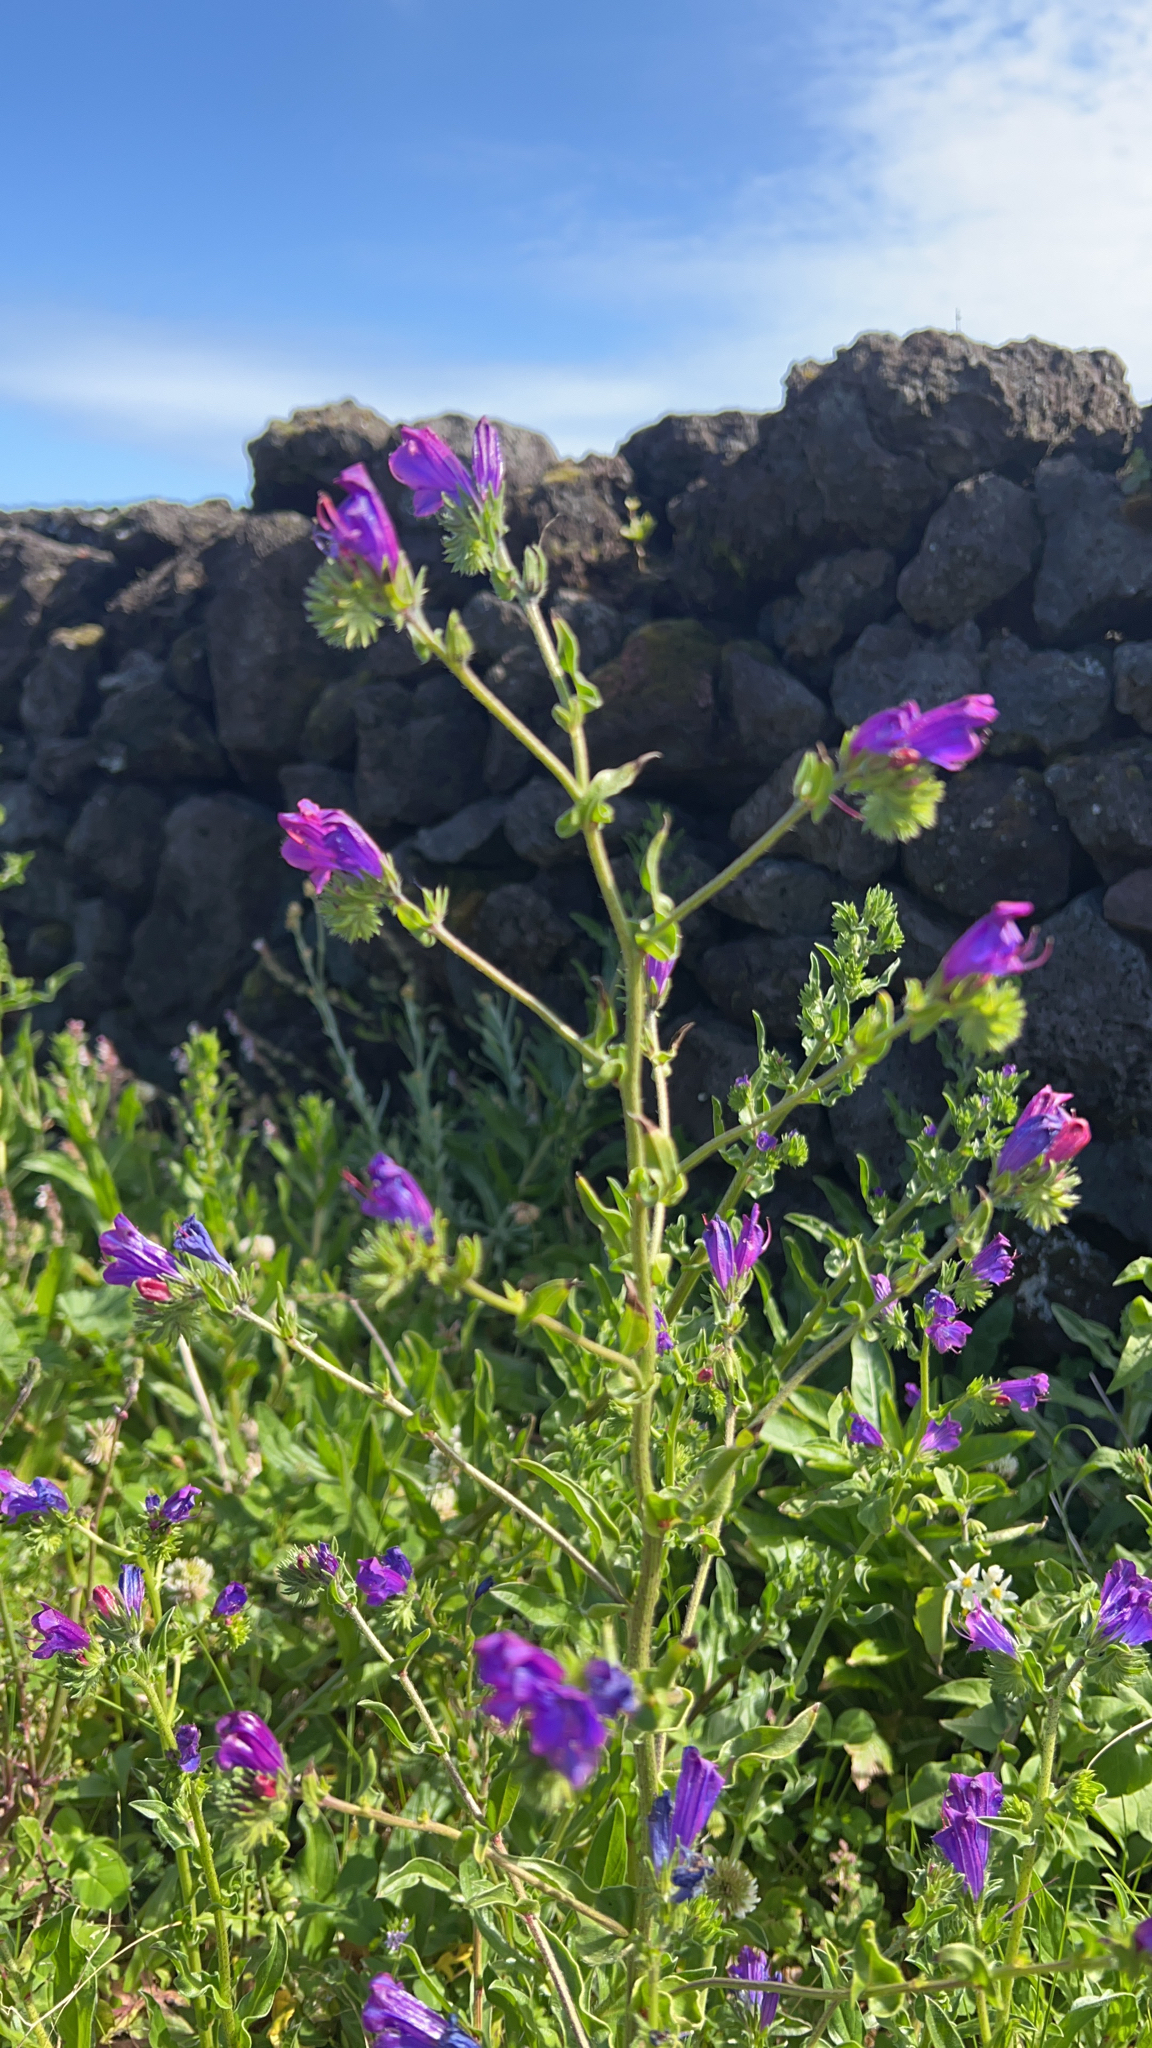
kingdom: Plantae
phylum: Tracheophyta
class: Magnoliopsida
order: Boraginales
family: Boraginaceae
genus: Echium
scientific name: Echium plantagineum
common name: Purple viper's-bugloss
